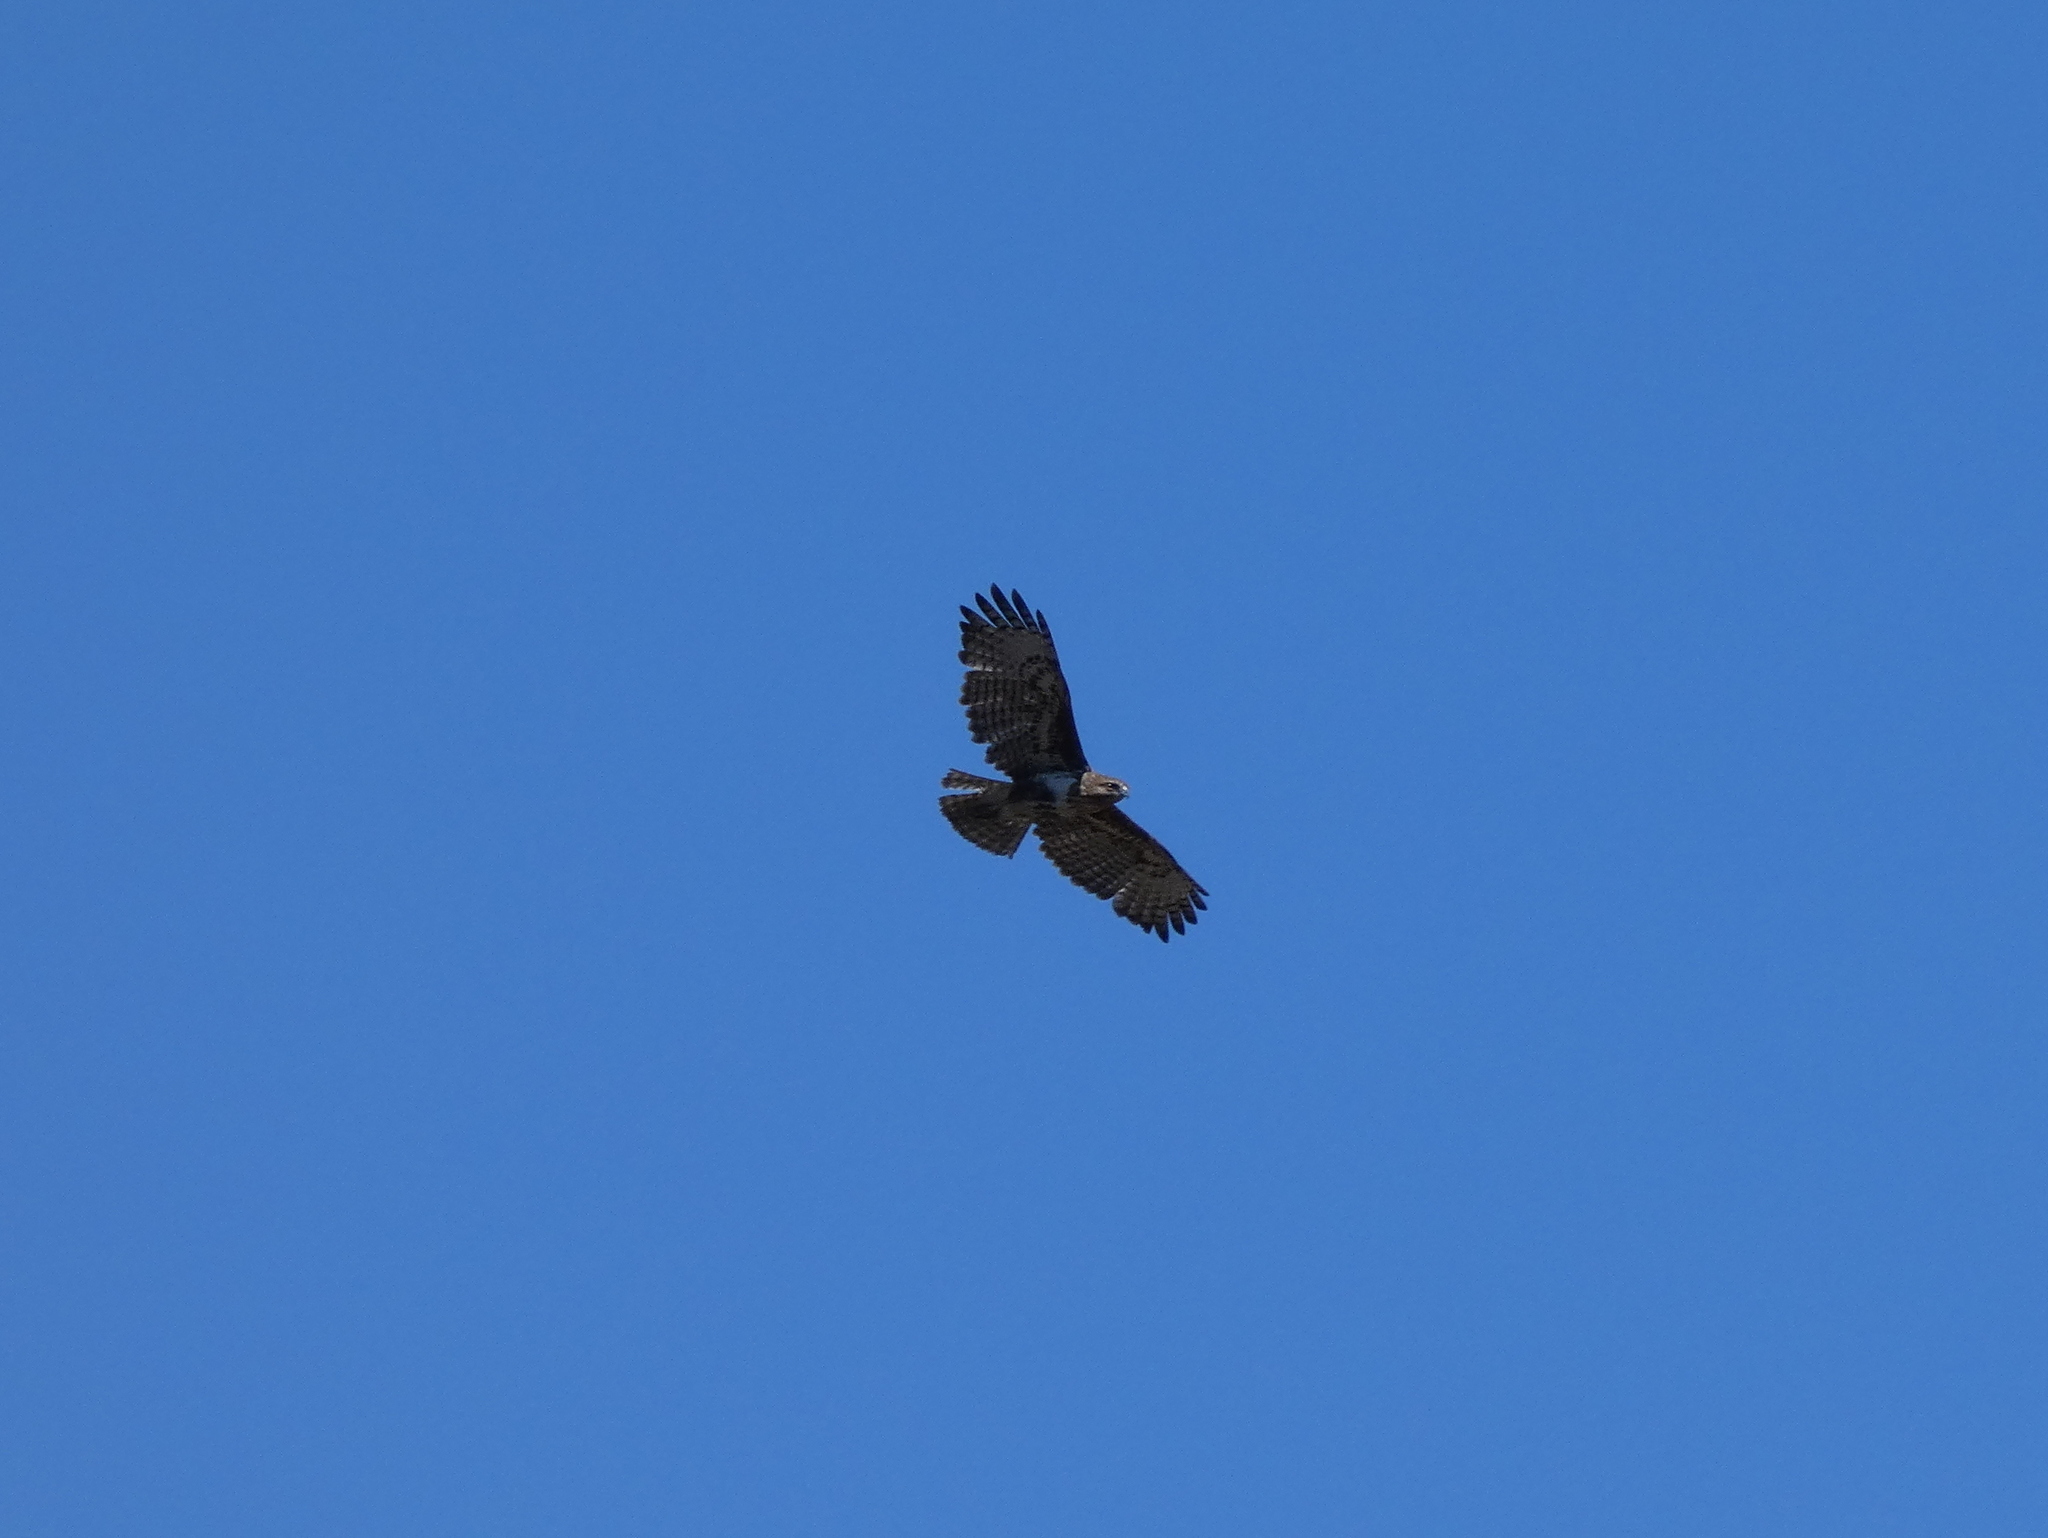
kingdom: Animalia
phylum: Chordata
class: Aves
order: Accipitriformes
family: Accipitridae
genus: Buteo
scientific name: Buteo brachypterus
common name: Madagascar buzzard
